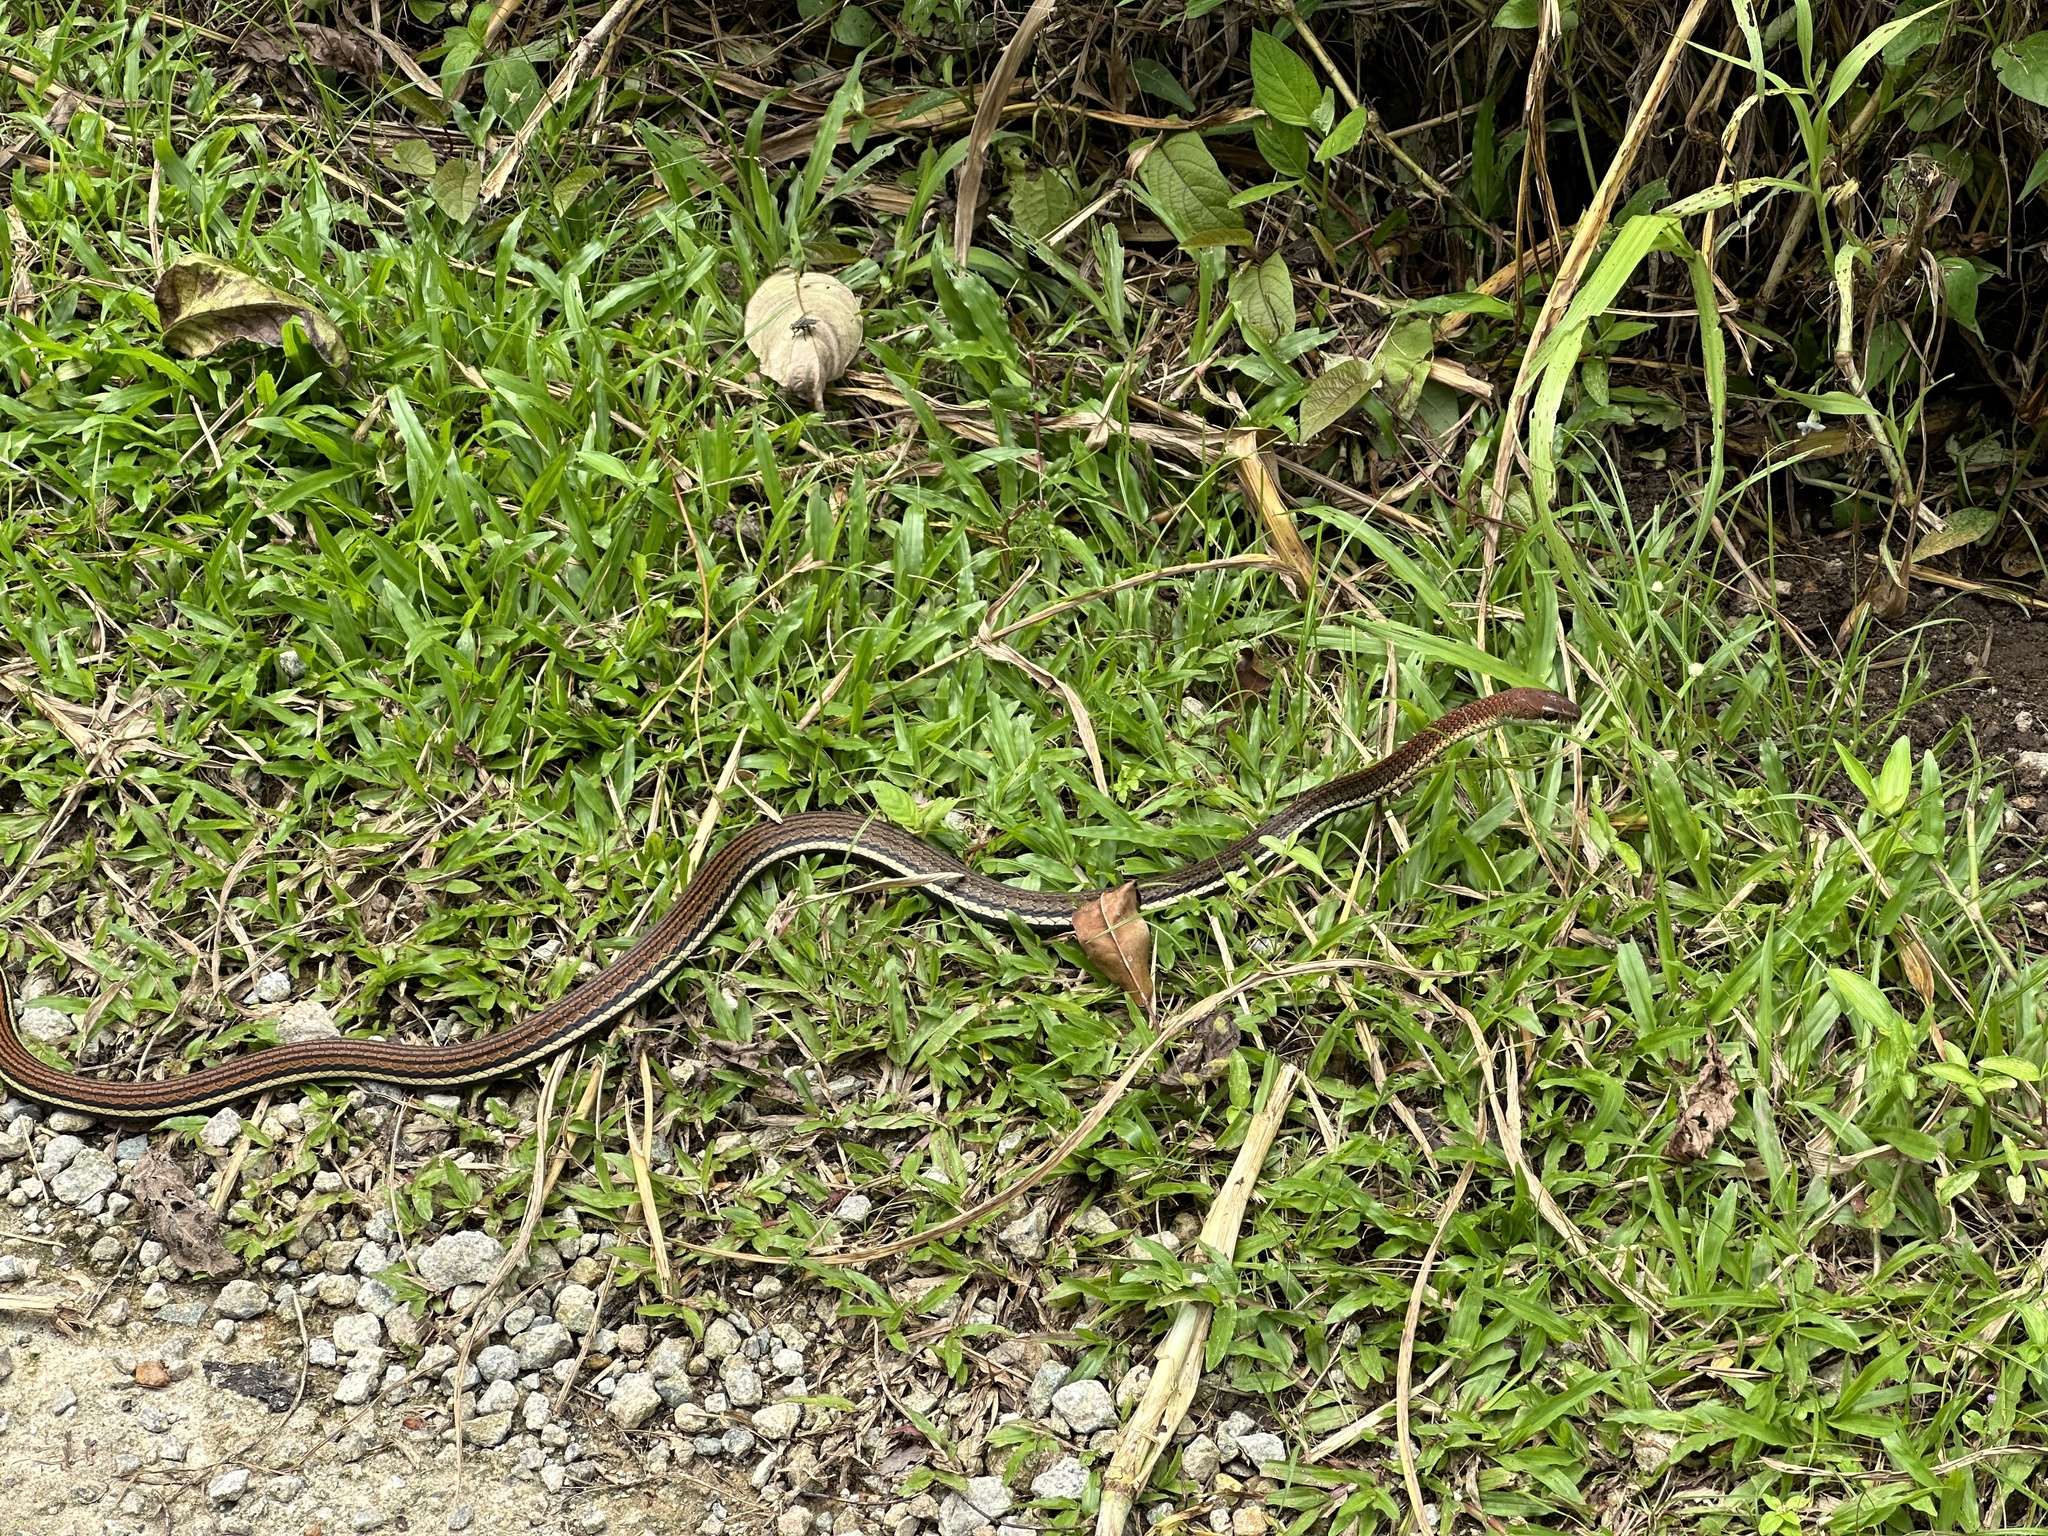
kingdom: Animalia
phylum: Chordata
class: Squamata
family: Colubridae
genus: Dendrelaphis
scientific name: Dendrelaphis caudolineatus
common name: Striped bronzeback
